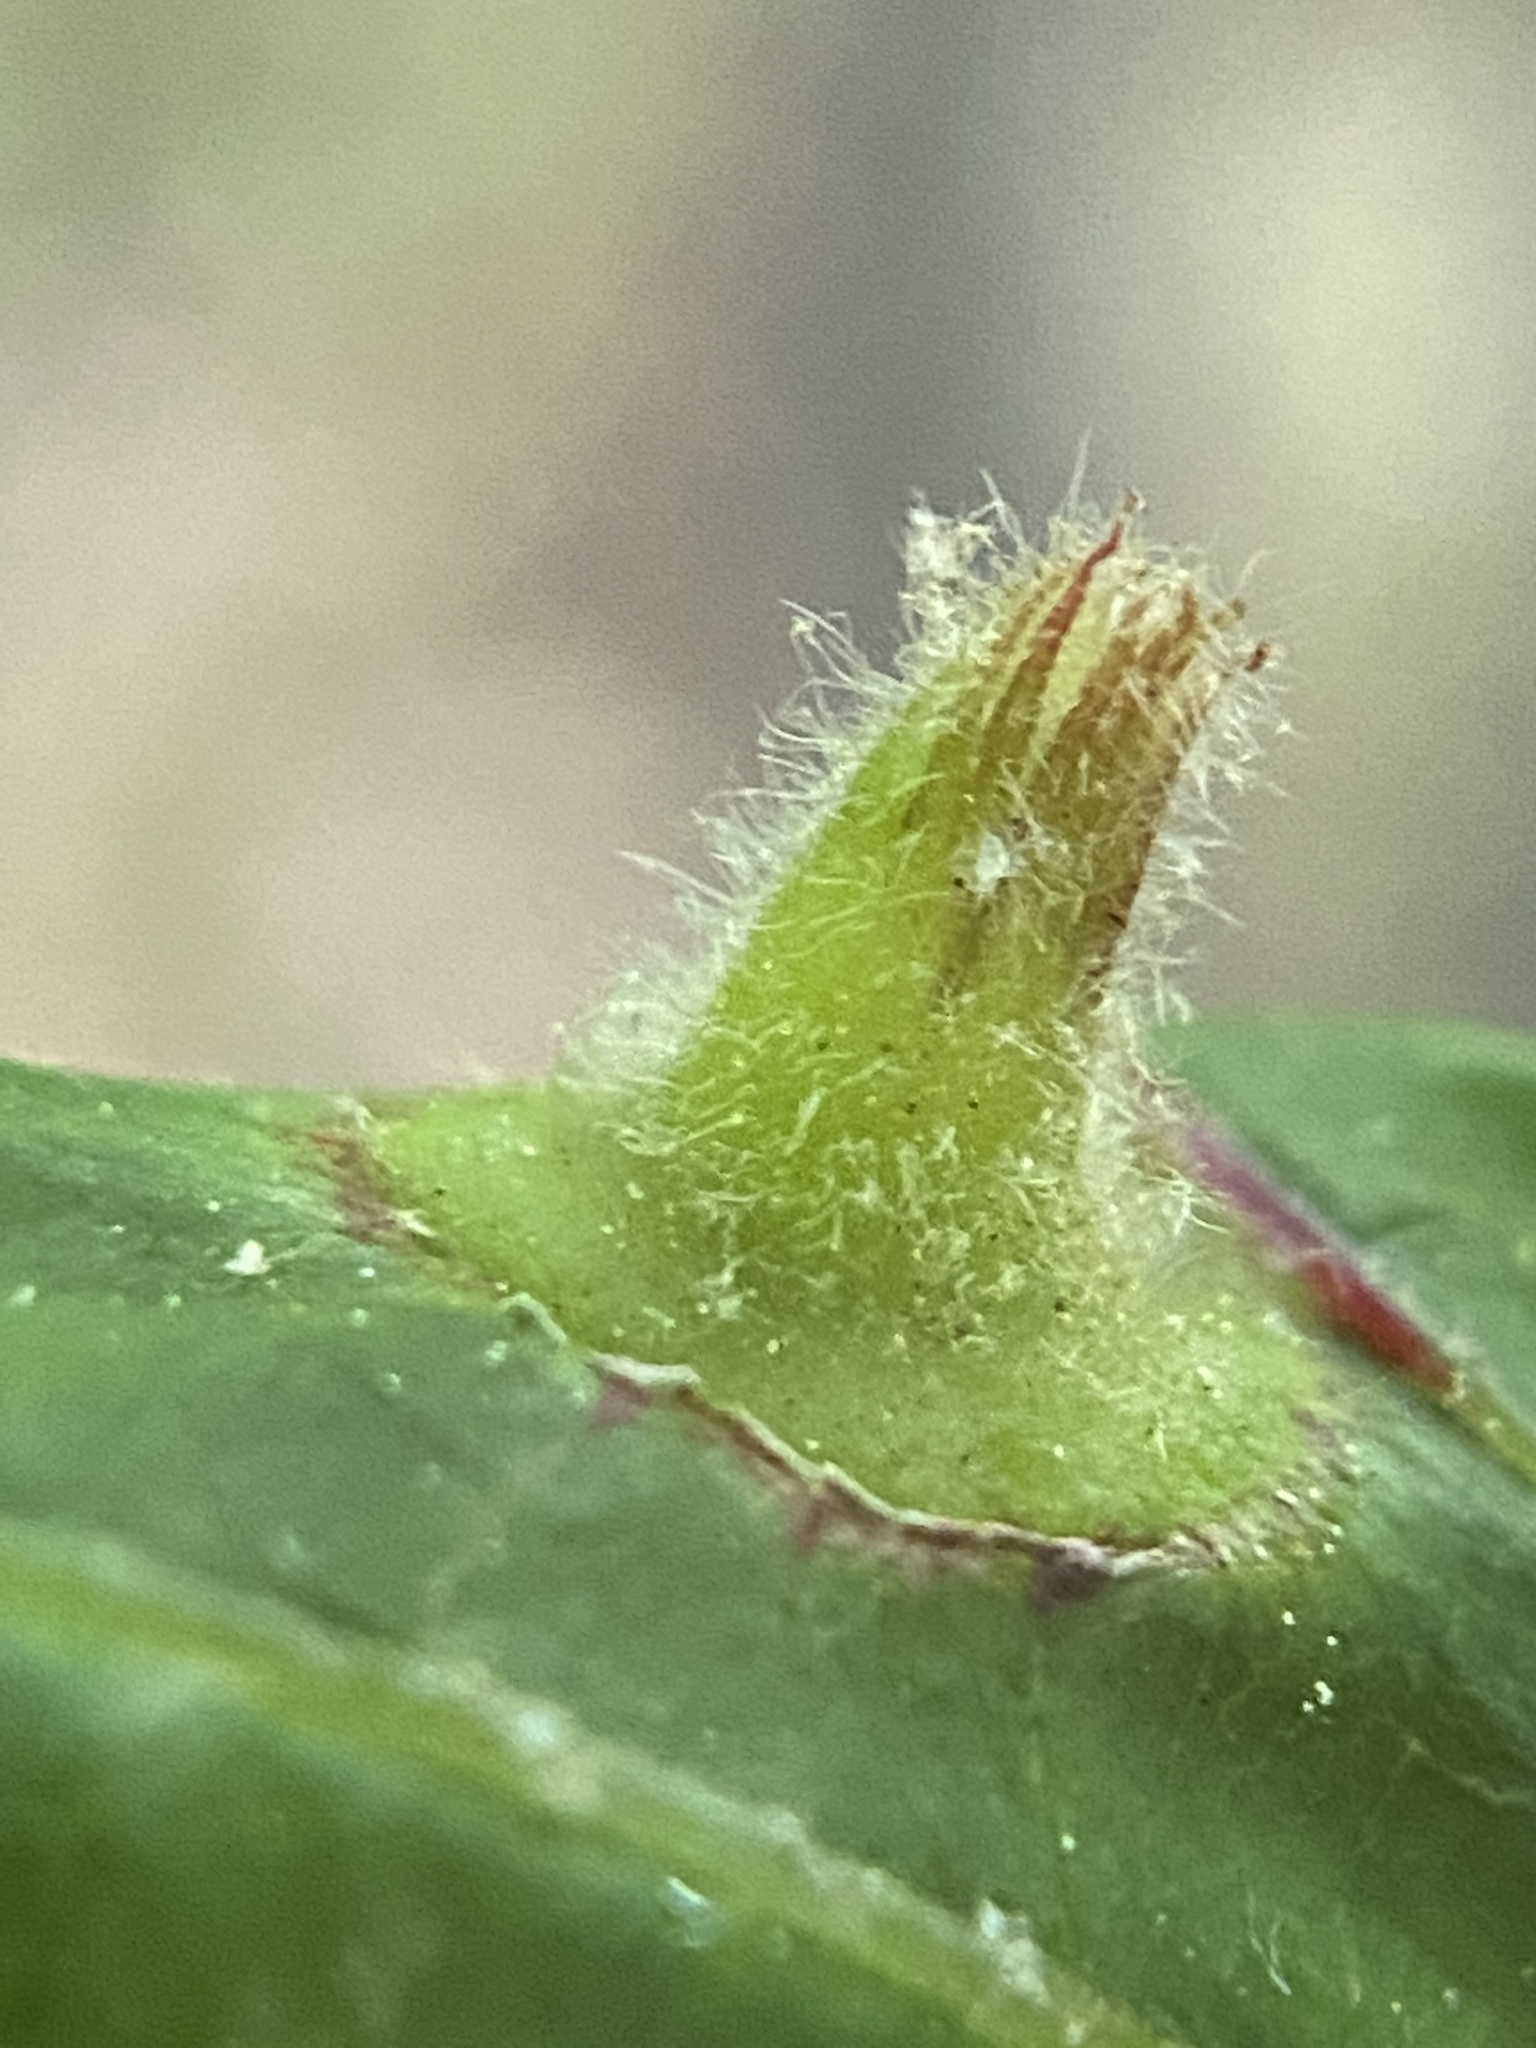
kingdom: Animalia
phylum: Arthropoda
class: Insecta
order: Hemiptera
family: Phylloxeridae
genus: Phylloxera
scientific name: Phylloxera caryaefoliae
